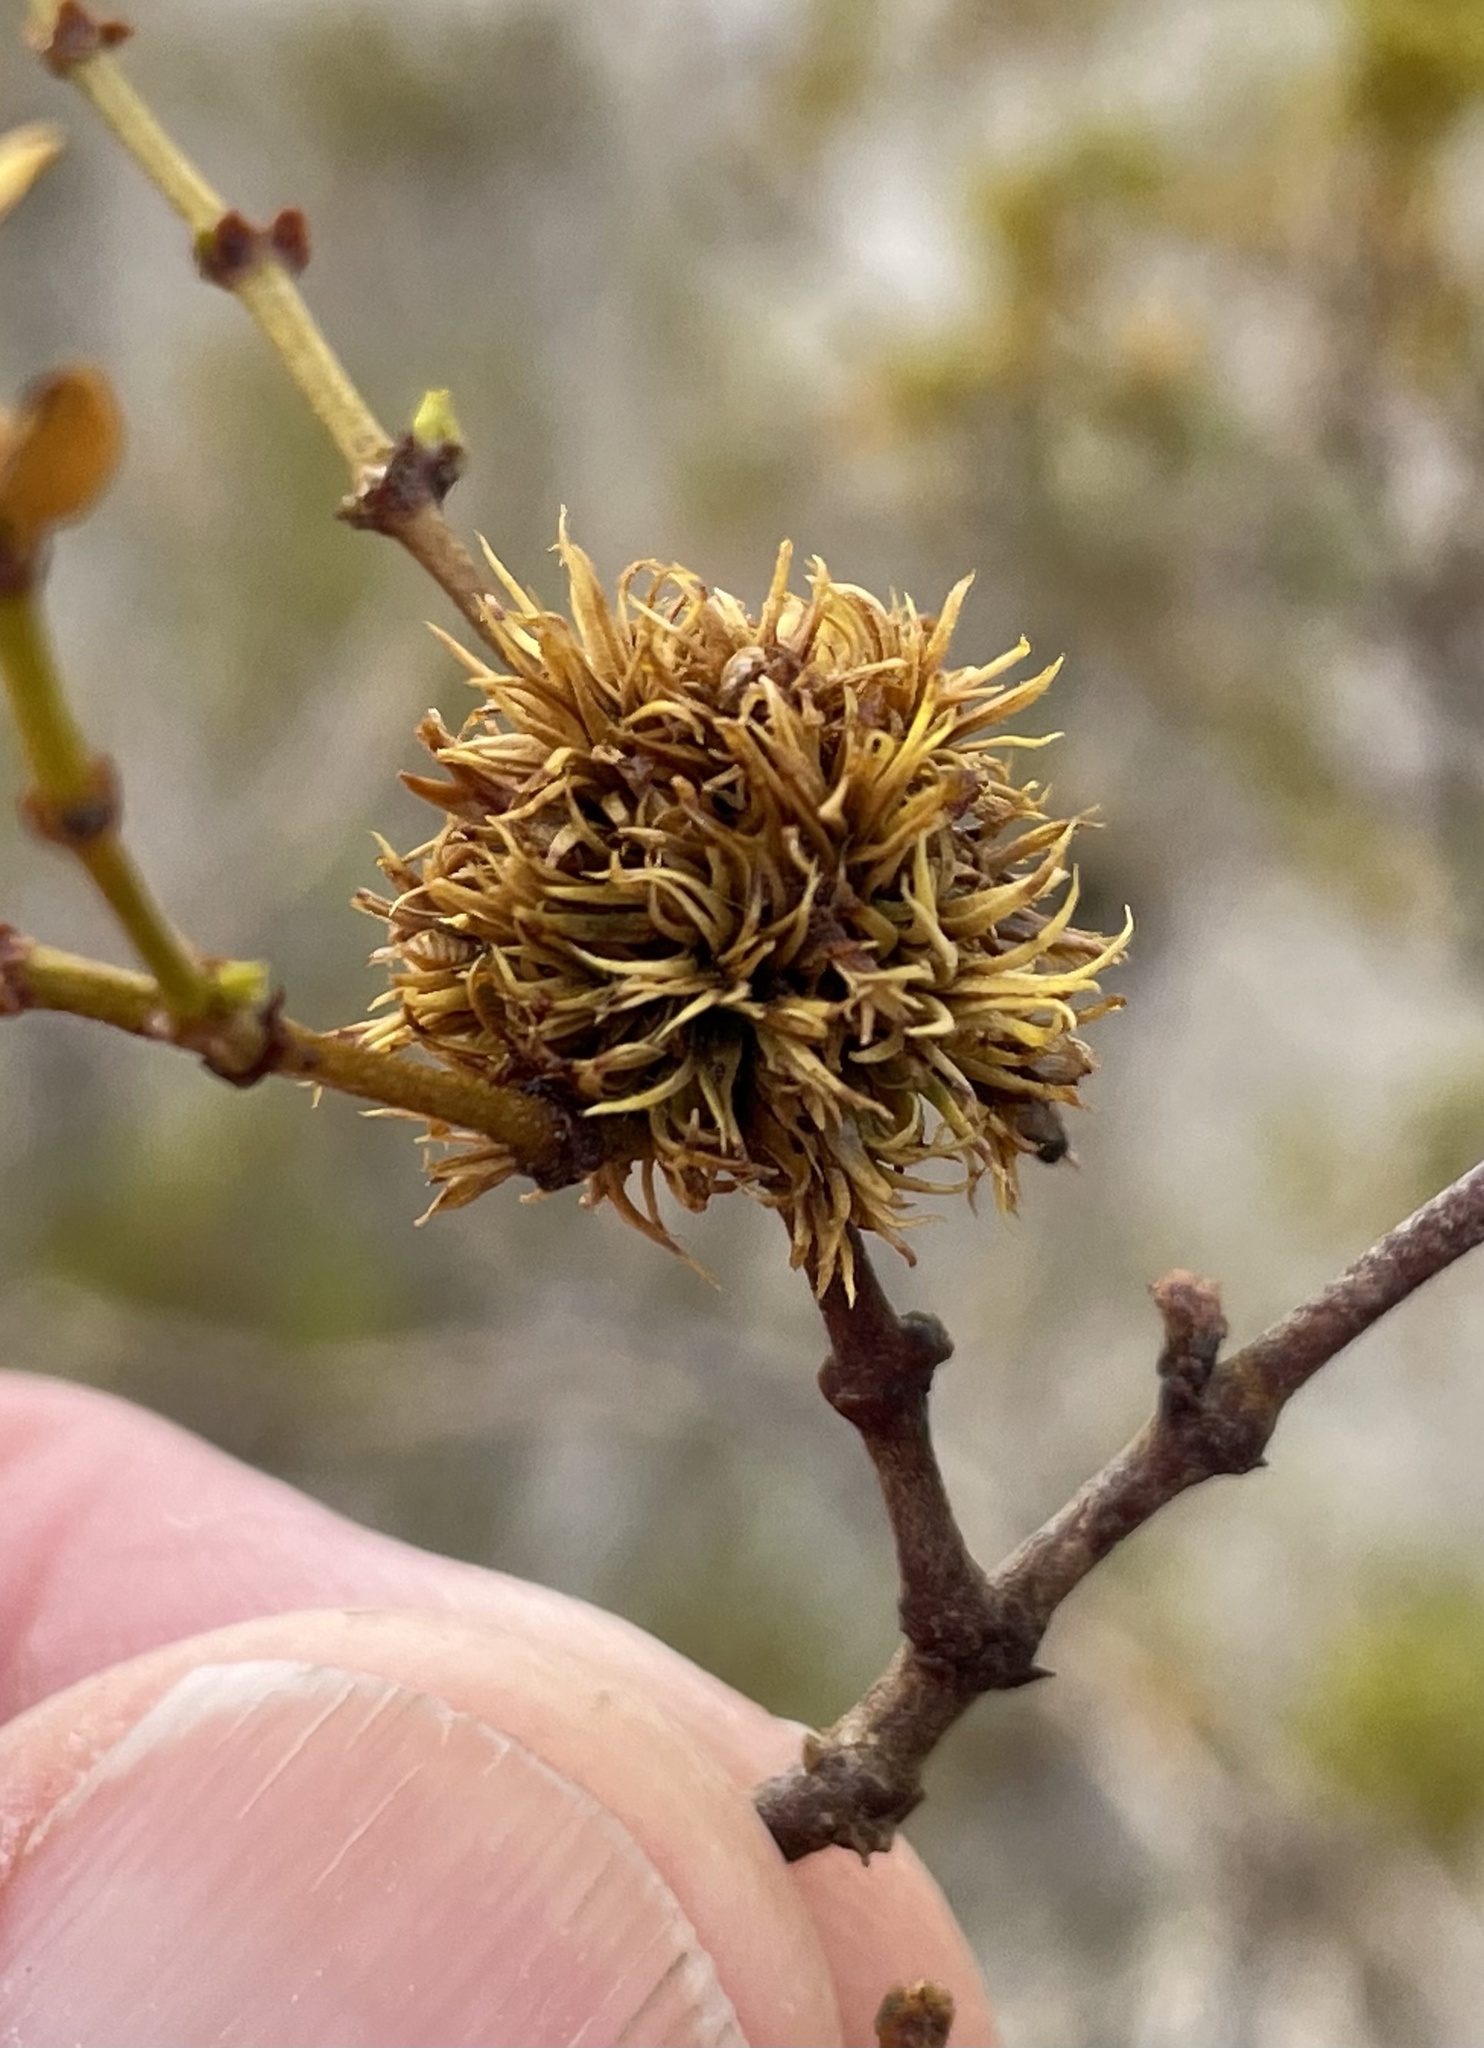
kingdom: Animalia
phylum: Arthropoda
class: Insecta
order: Diptera
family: Cecidomyiidae
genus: Asphondylia
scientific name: Asphondylia auripila
